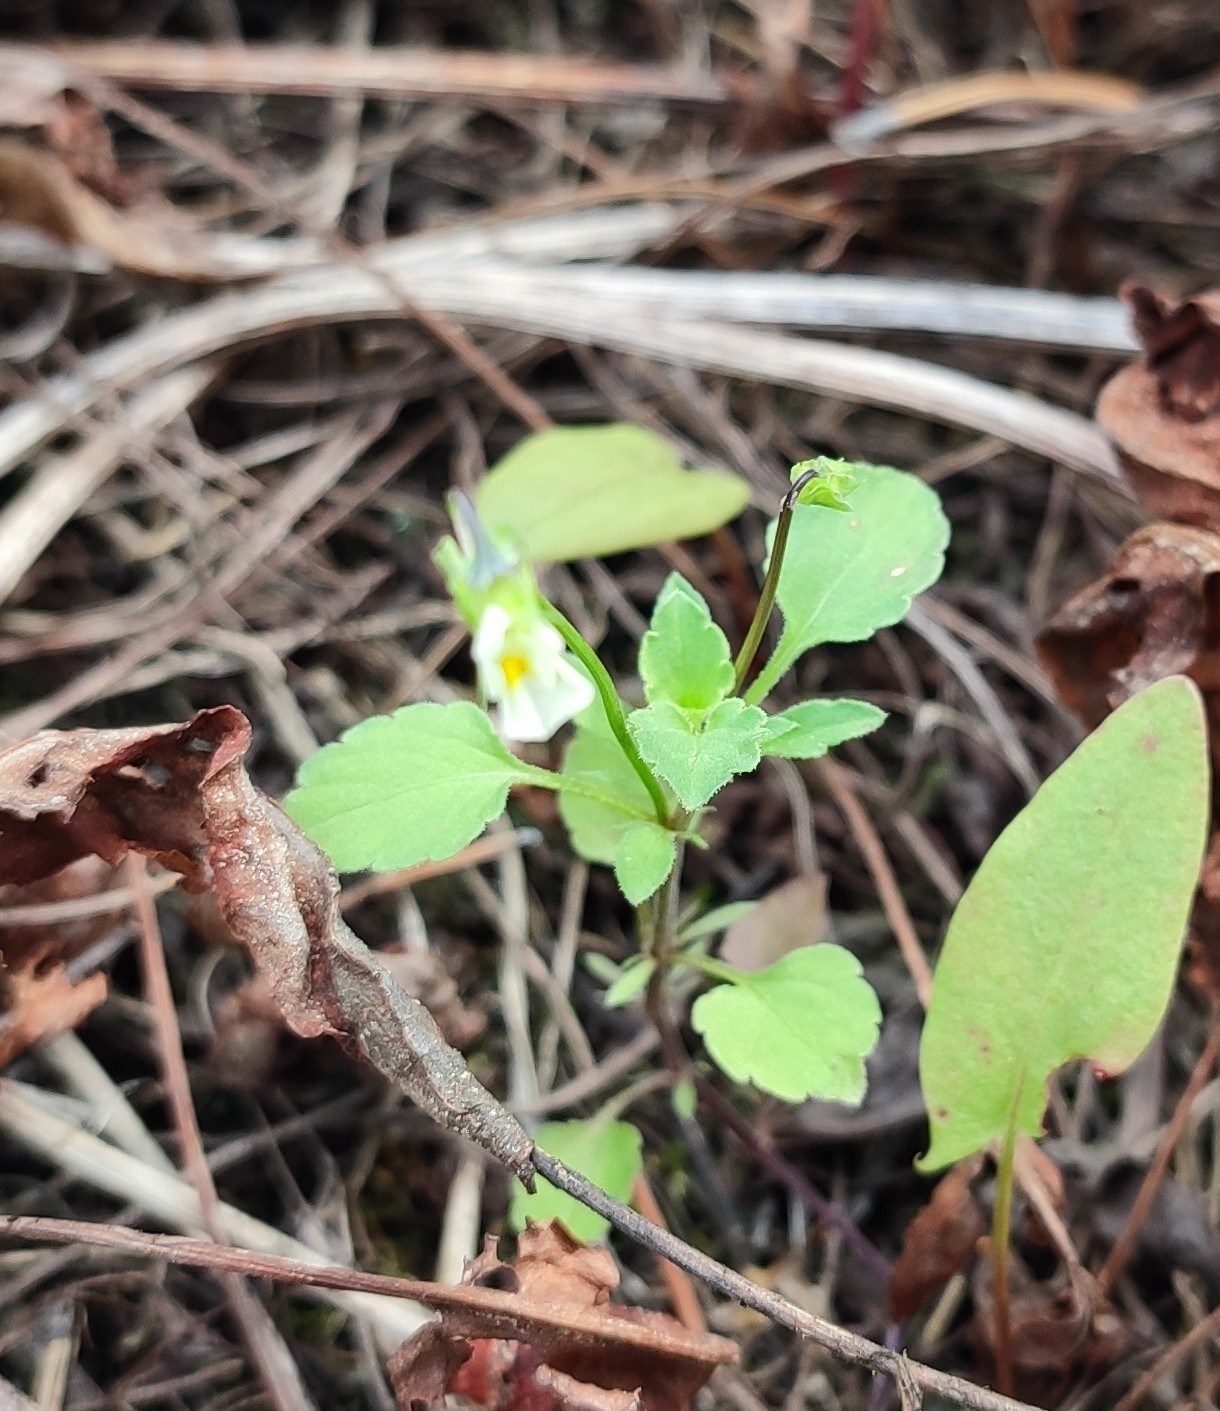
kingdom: Plantae
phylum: Tracheophyta
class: Magnoliopsida
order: Malpighiales
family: Violaceae
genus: Viola
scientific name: Viola arvensis
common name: Field pansy
